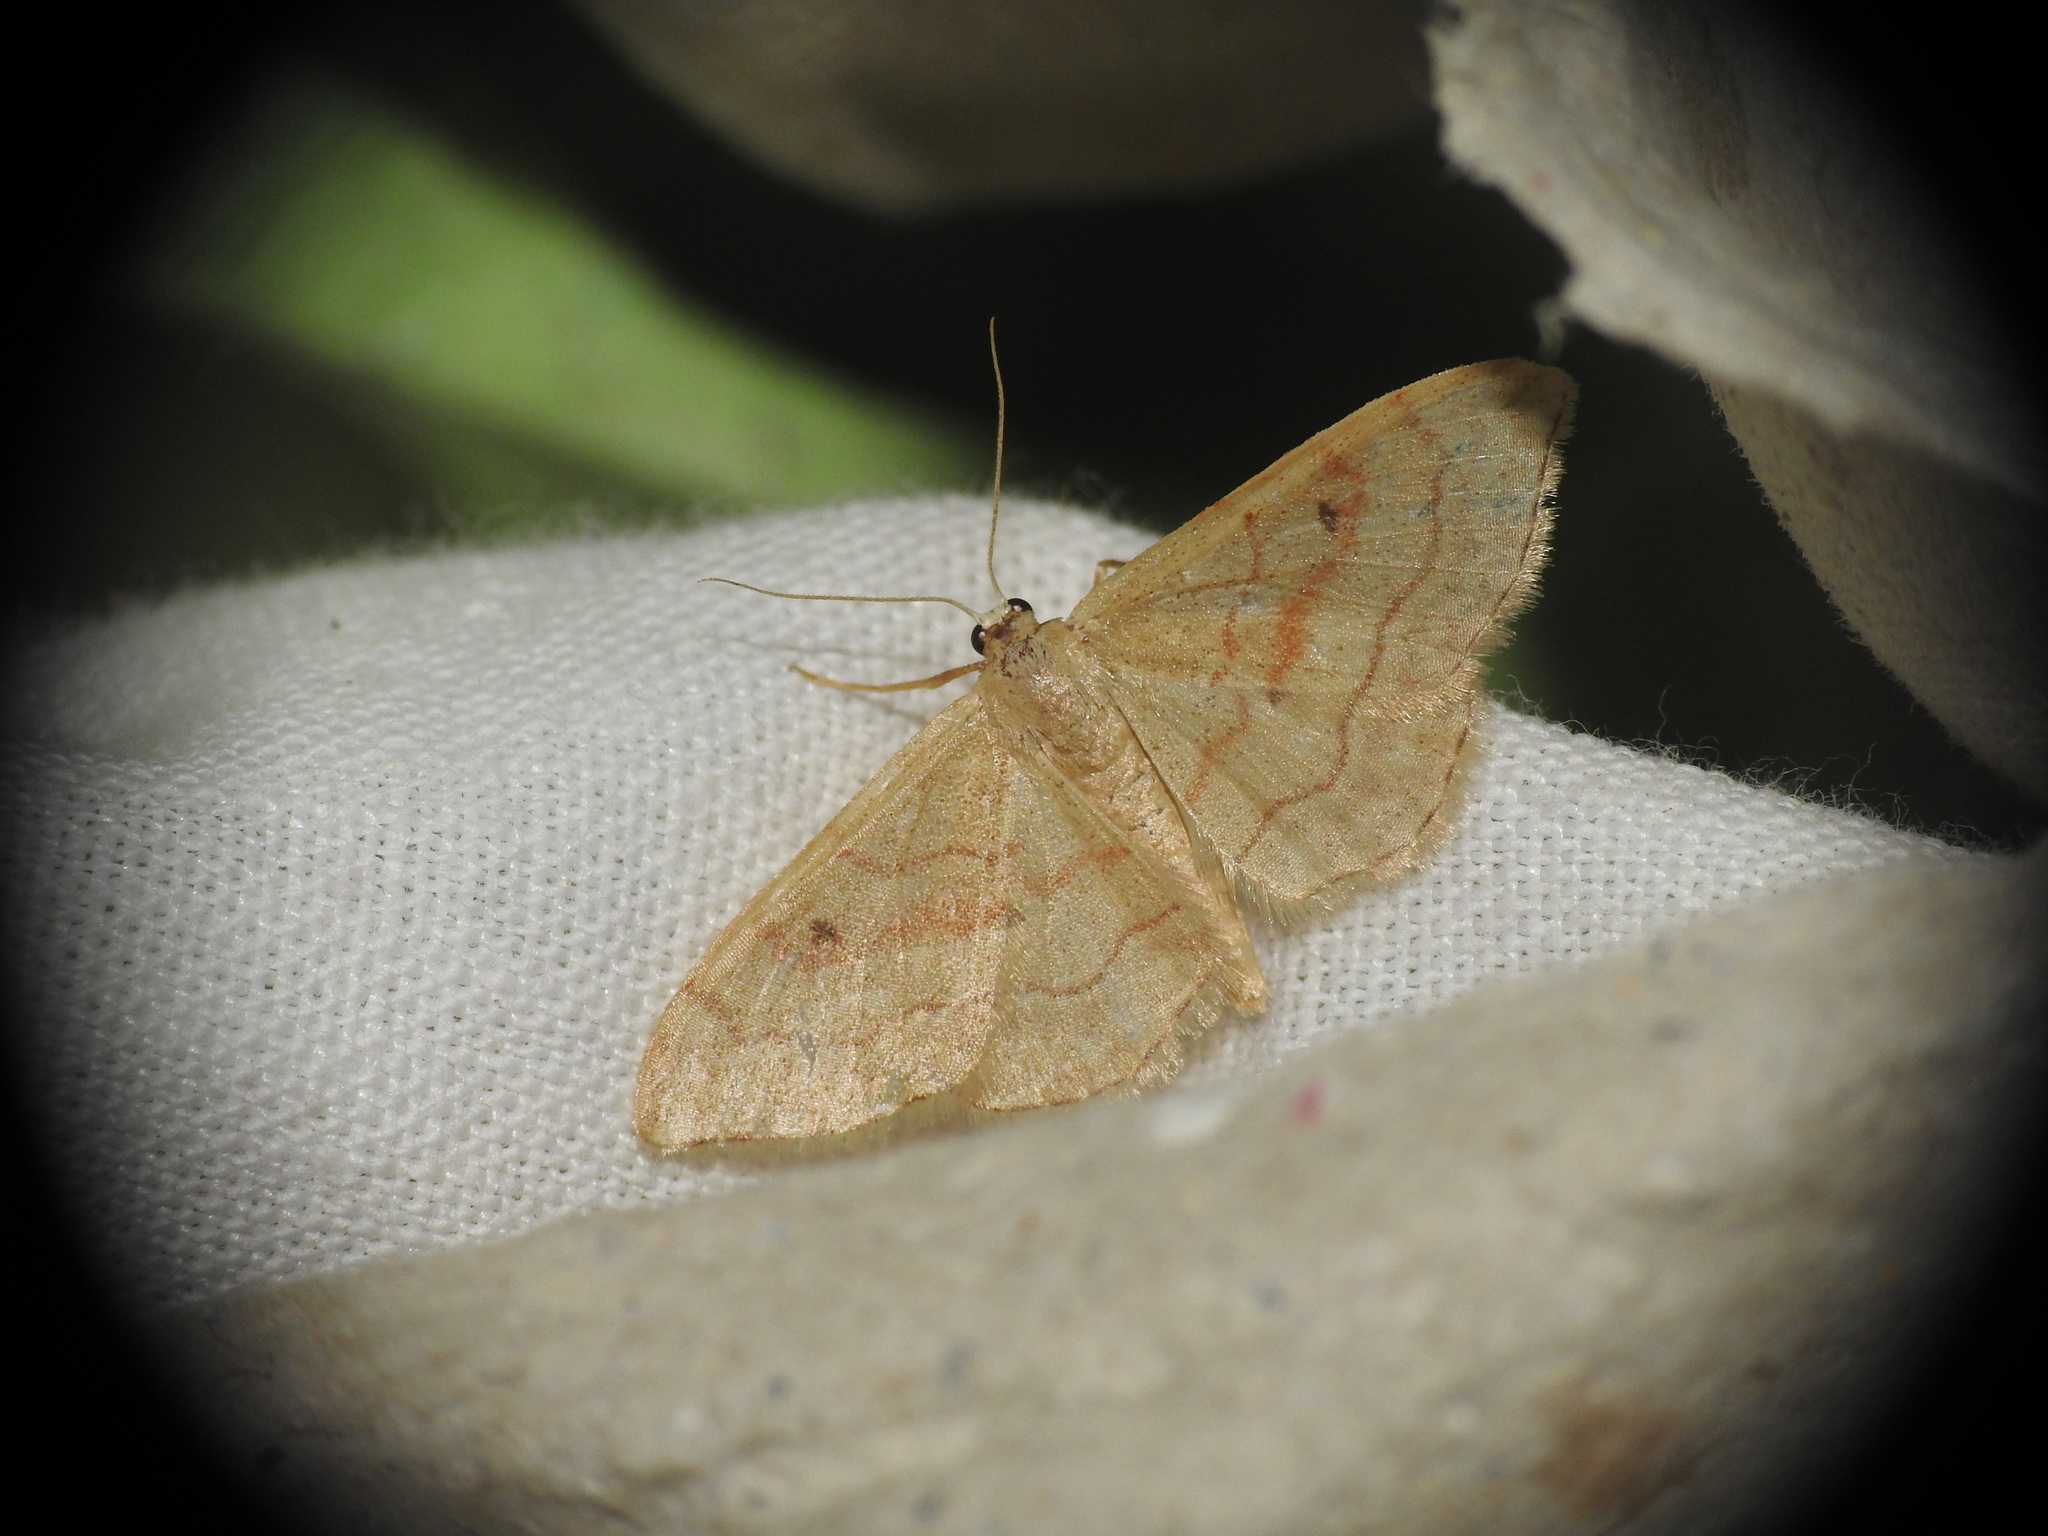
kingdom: Animalia
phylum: Arthropoda
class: Insecta
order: Lepidoptera
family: Geometridae
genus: Idaea
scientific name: Idaea bilinearia
